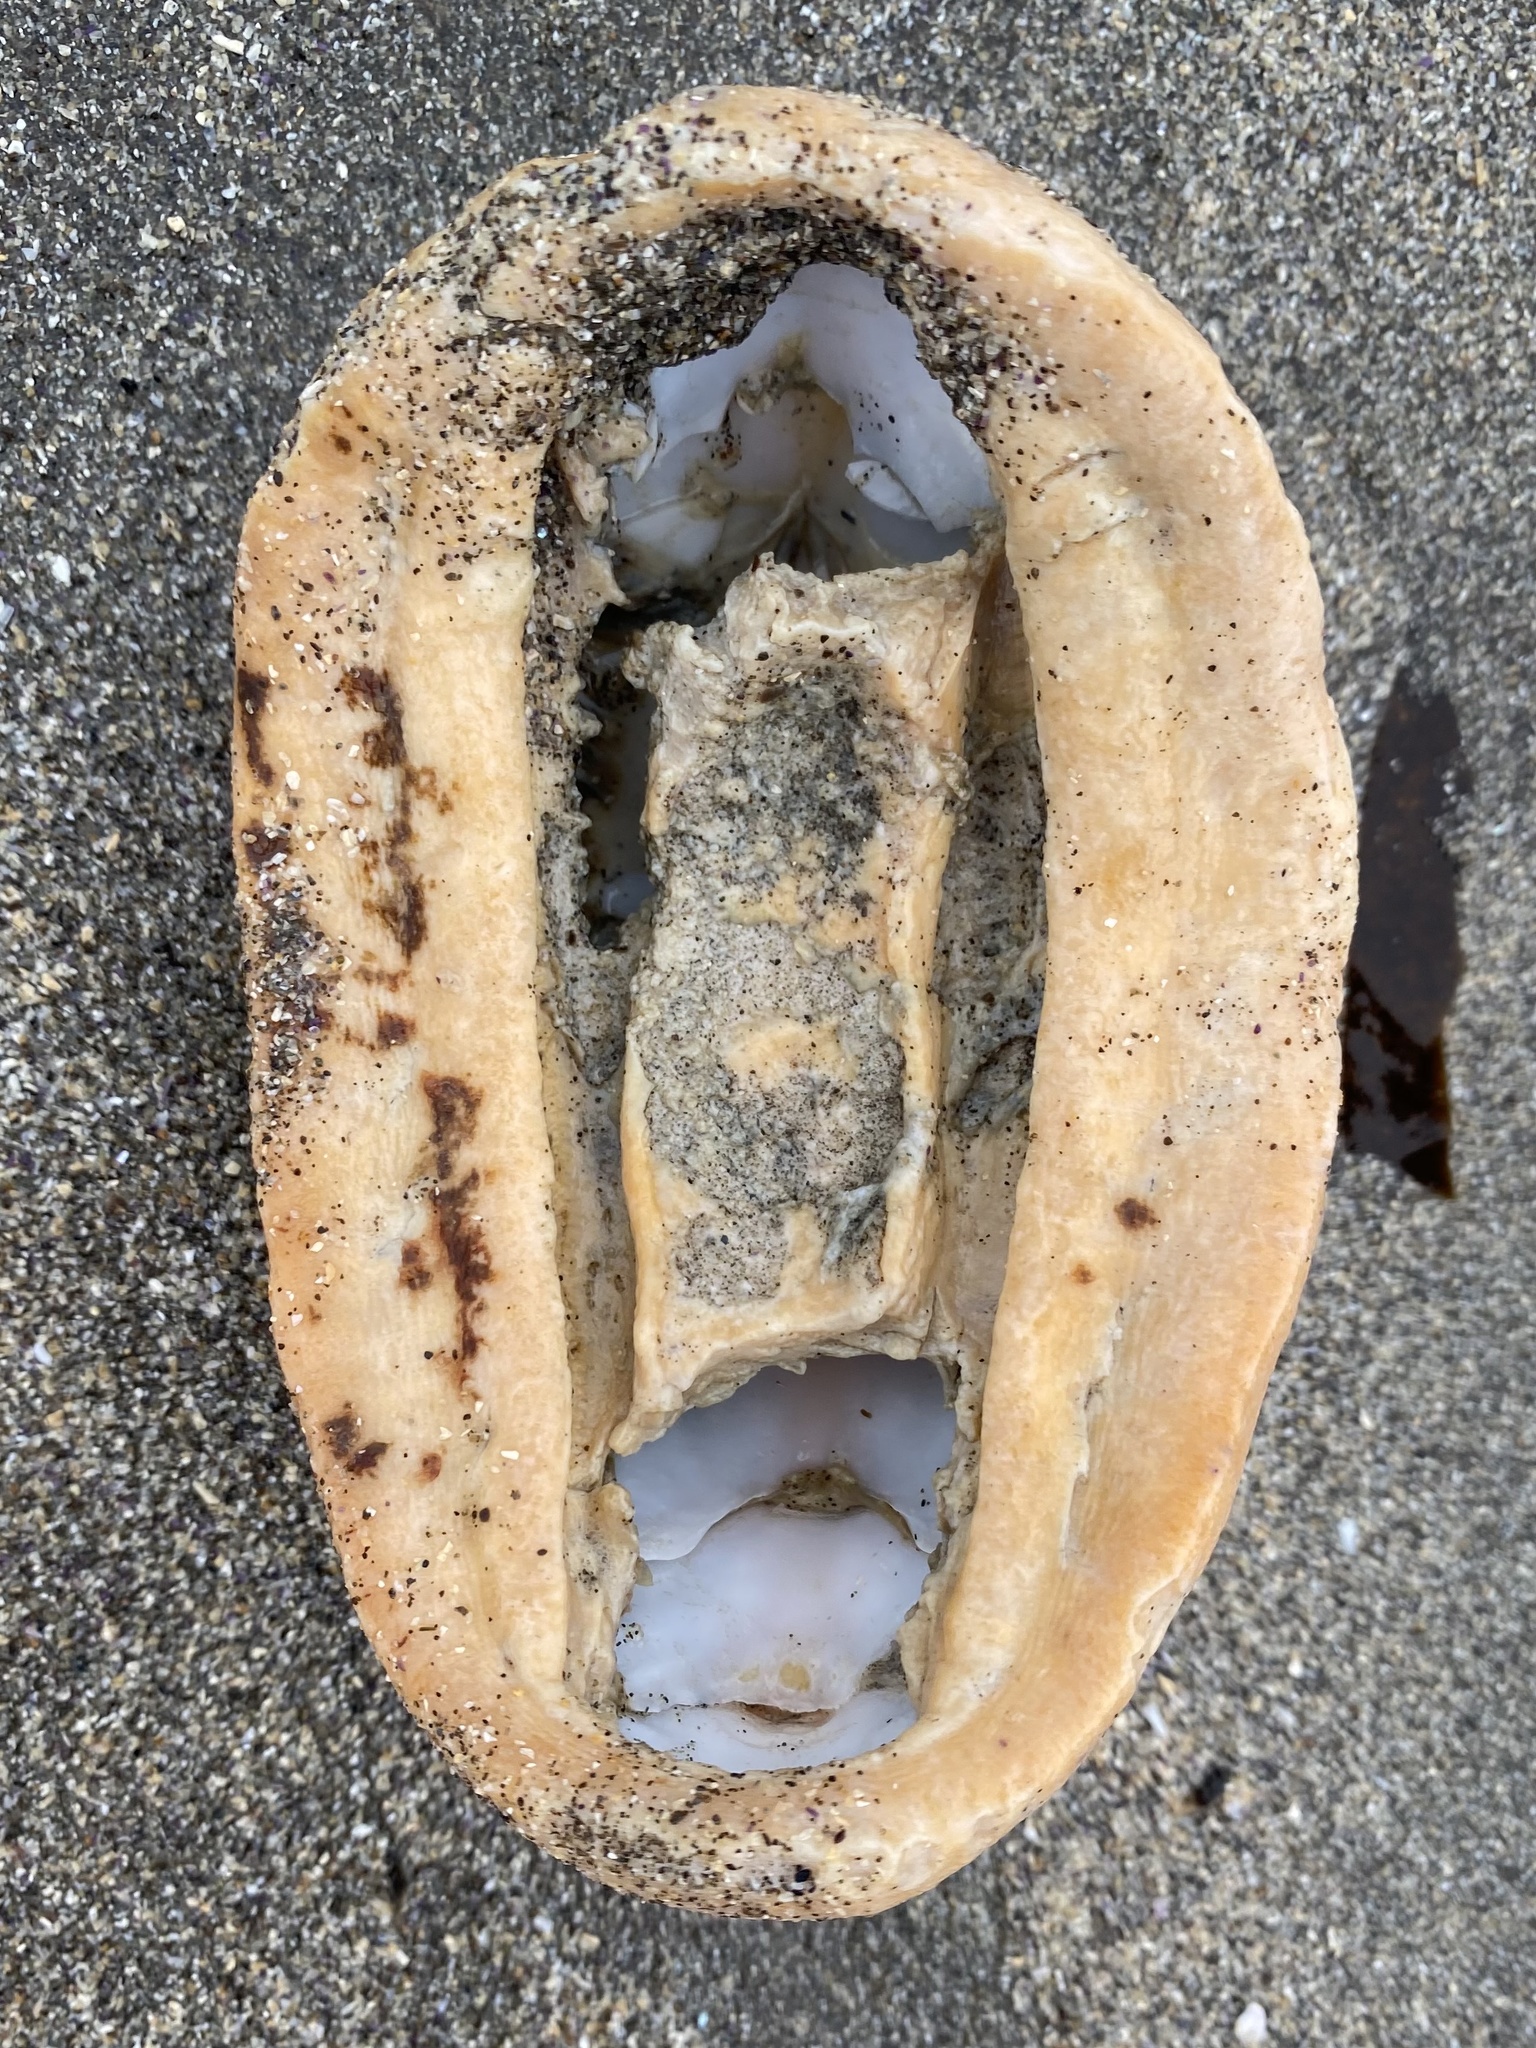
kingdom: Animalia
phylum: Mollusca
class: Polyplacophora
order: Chitonida
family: Acanthochitonidae
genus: Cryptochiton
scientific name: Cryptochiton stelleri
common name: Giant pacific chiton
